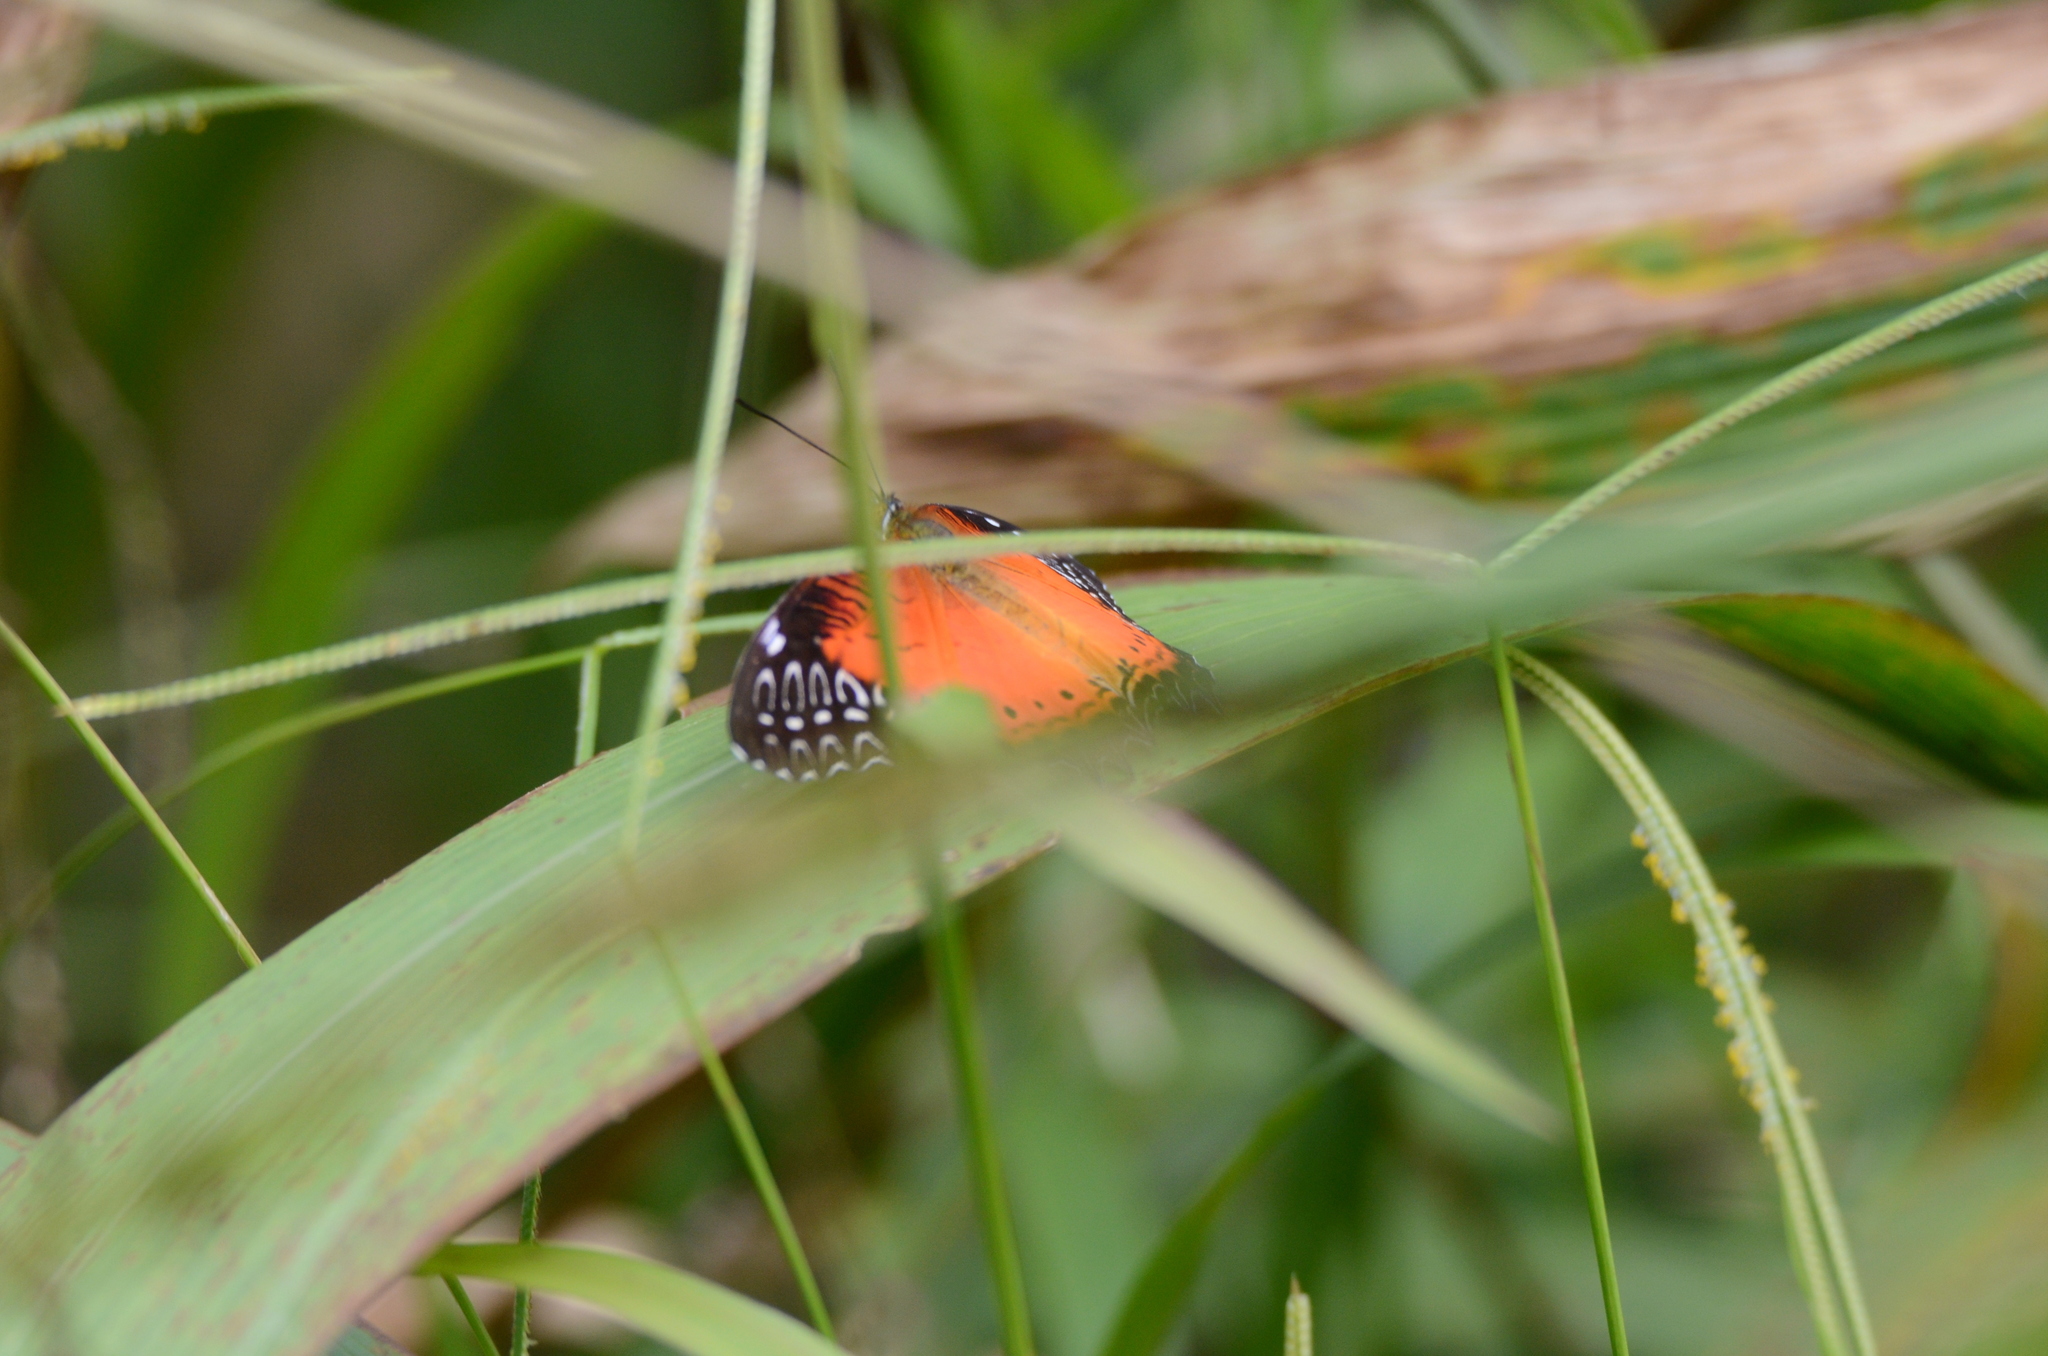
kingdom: Animalia
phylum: Arthropoda
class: Insecta
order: Lepidoptera
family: Nymphalidae
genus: Cethosia
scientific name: Cethosia biblis
